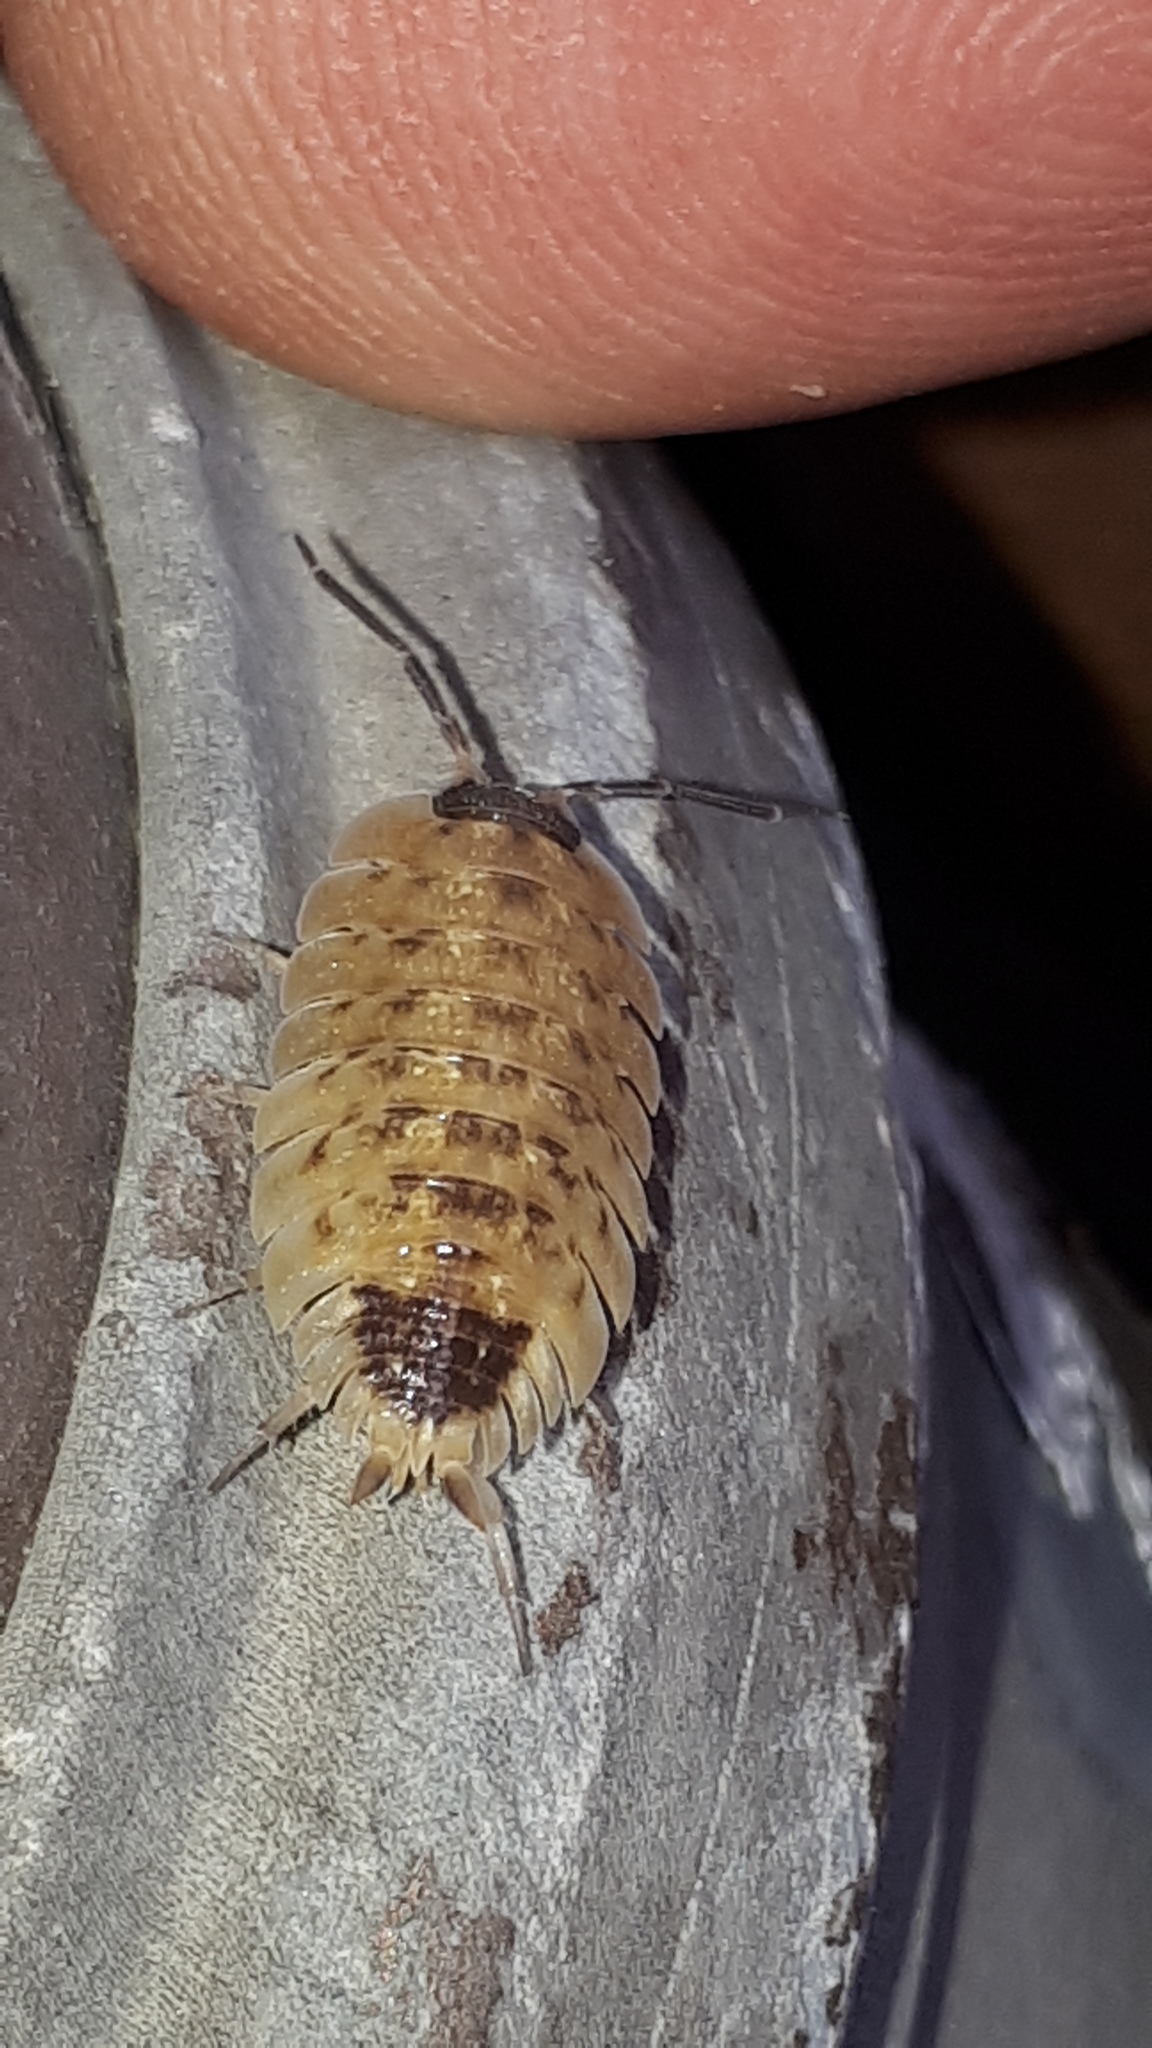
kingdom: Animalia
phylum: Arthropoda
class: Malacostraca
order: Isopoda
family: Porcellionidae
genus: Porcellio
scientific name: Porcellio spinicornis
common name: Painted woodlouse
